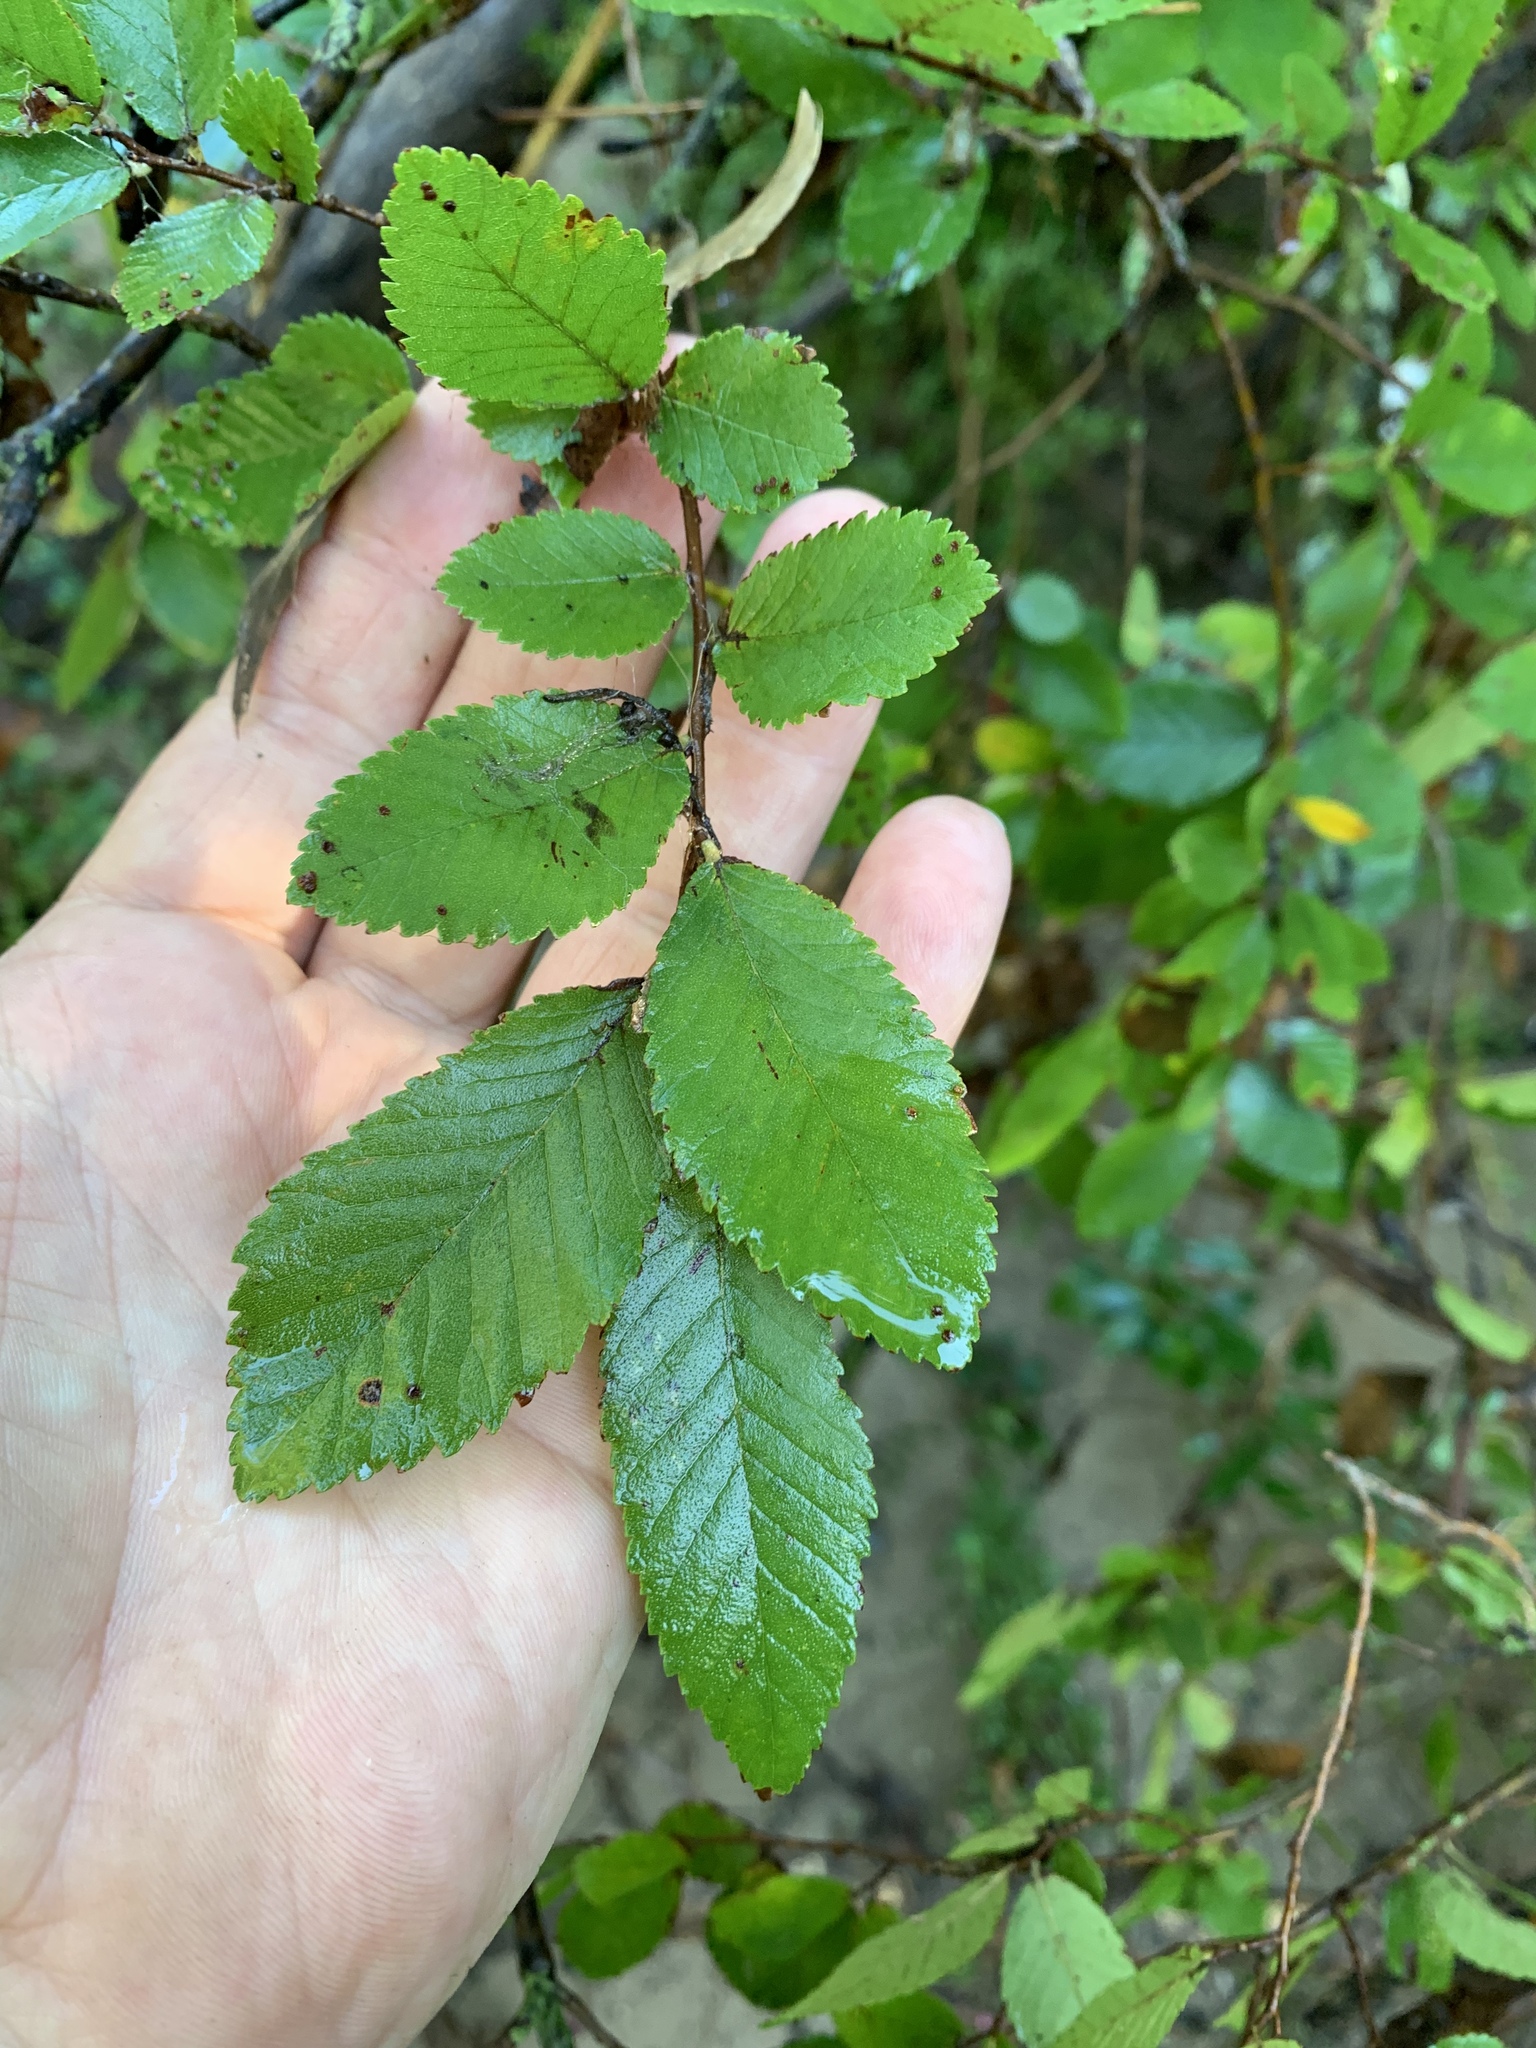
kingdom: Plantae
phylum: Tracheophyta
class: Magnoliopsida
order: Rosales
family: Ulmaceae
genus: Ulmus
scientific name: Ulmus crassifolia
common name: Basket elm
